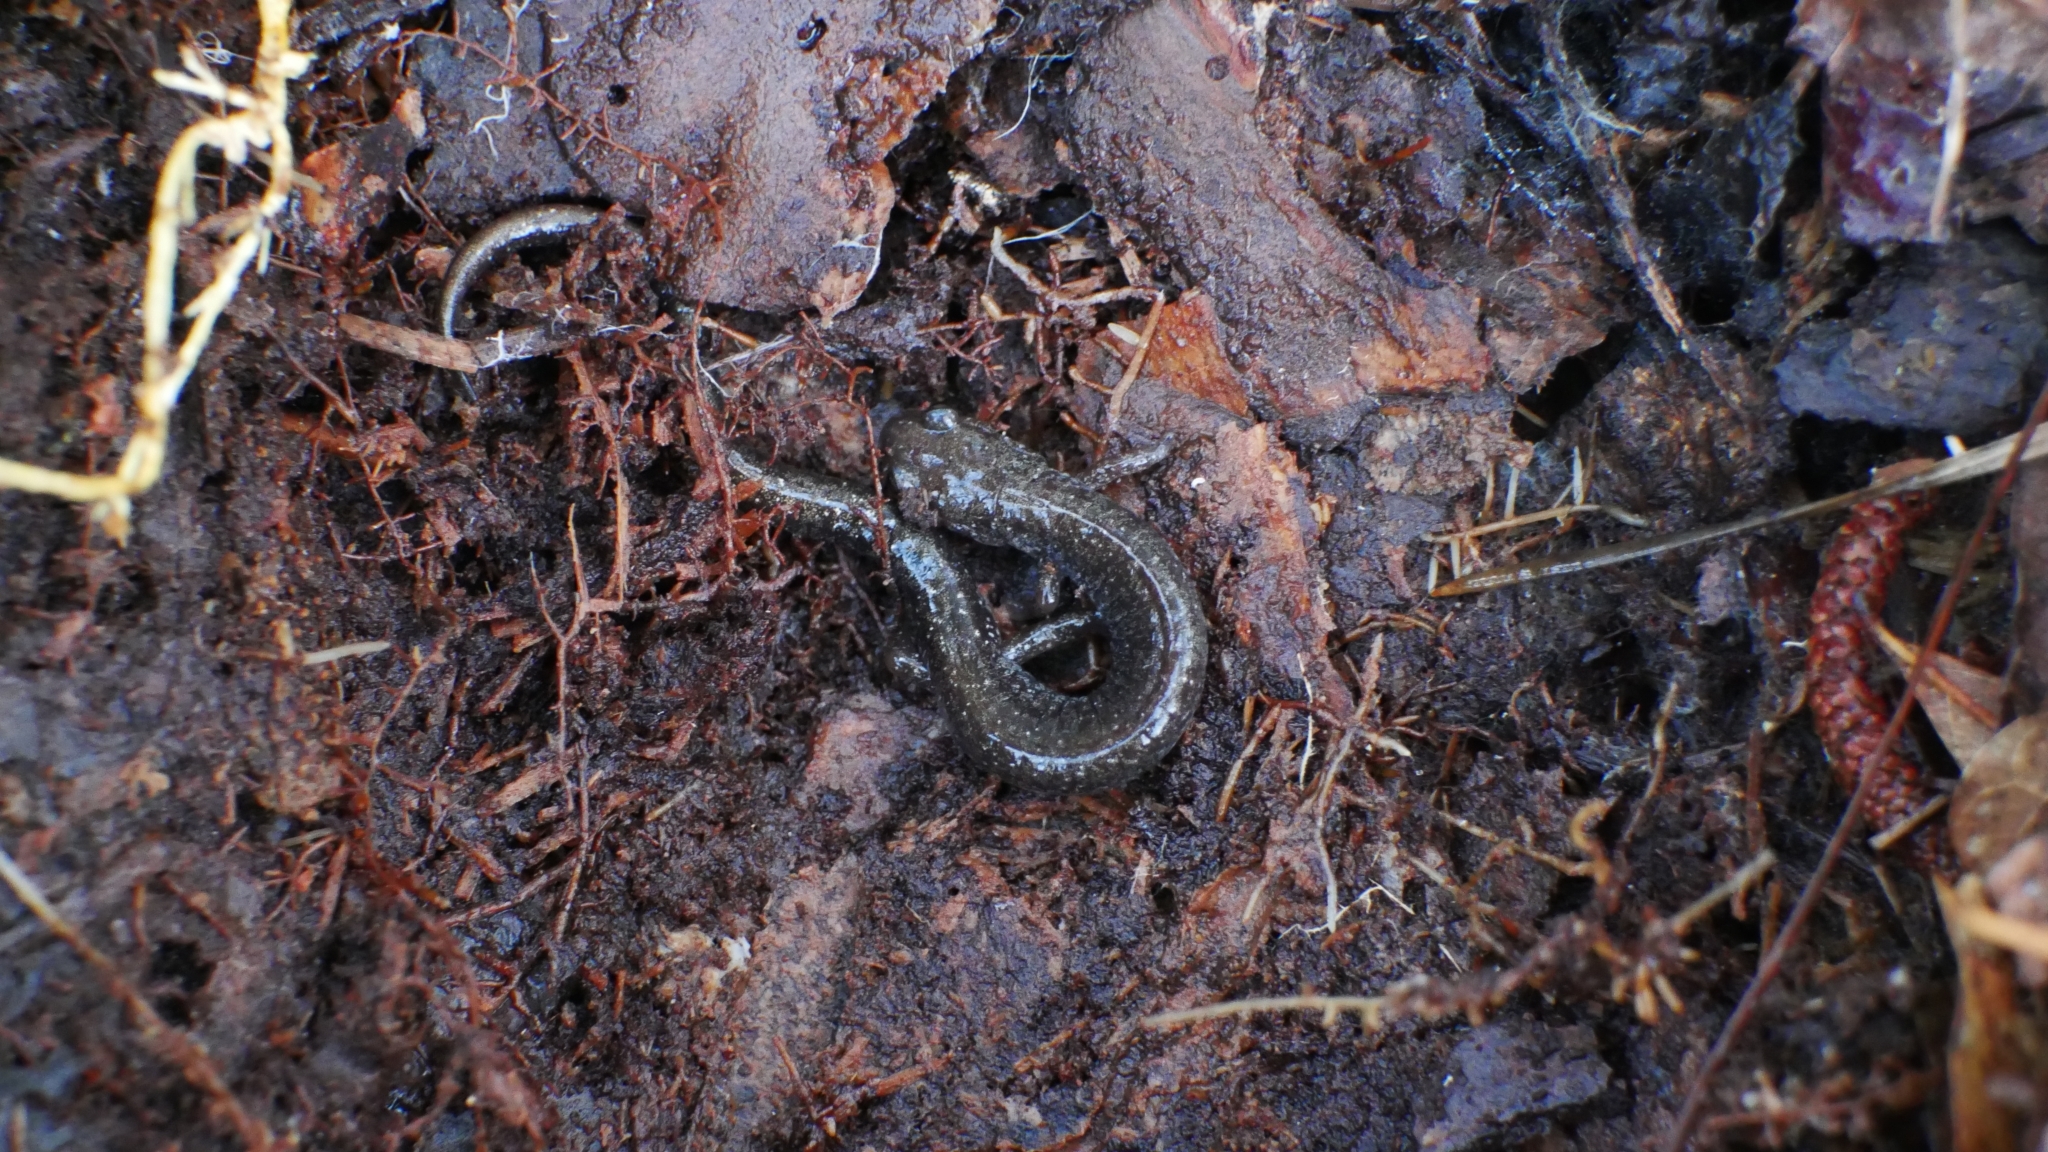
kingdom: Animalia
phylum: Chordata
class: Amphibia
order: Caudata
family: Plethodontidae
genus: Plethodon
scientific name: Plethodon cinereus
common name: Redback salamander
